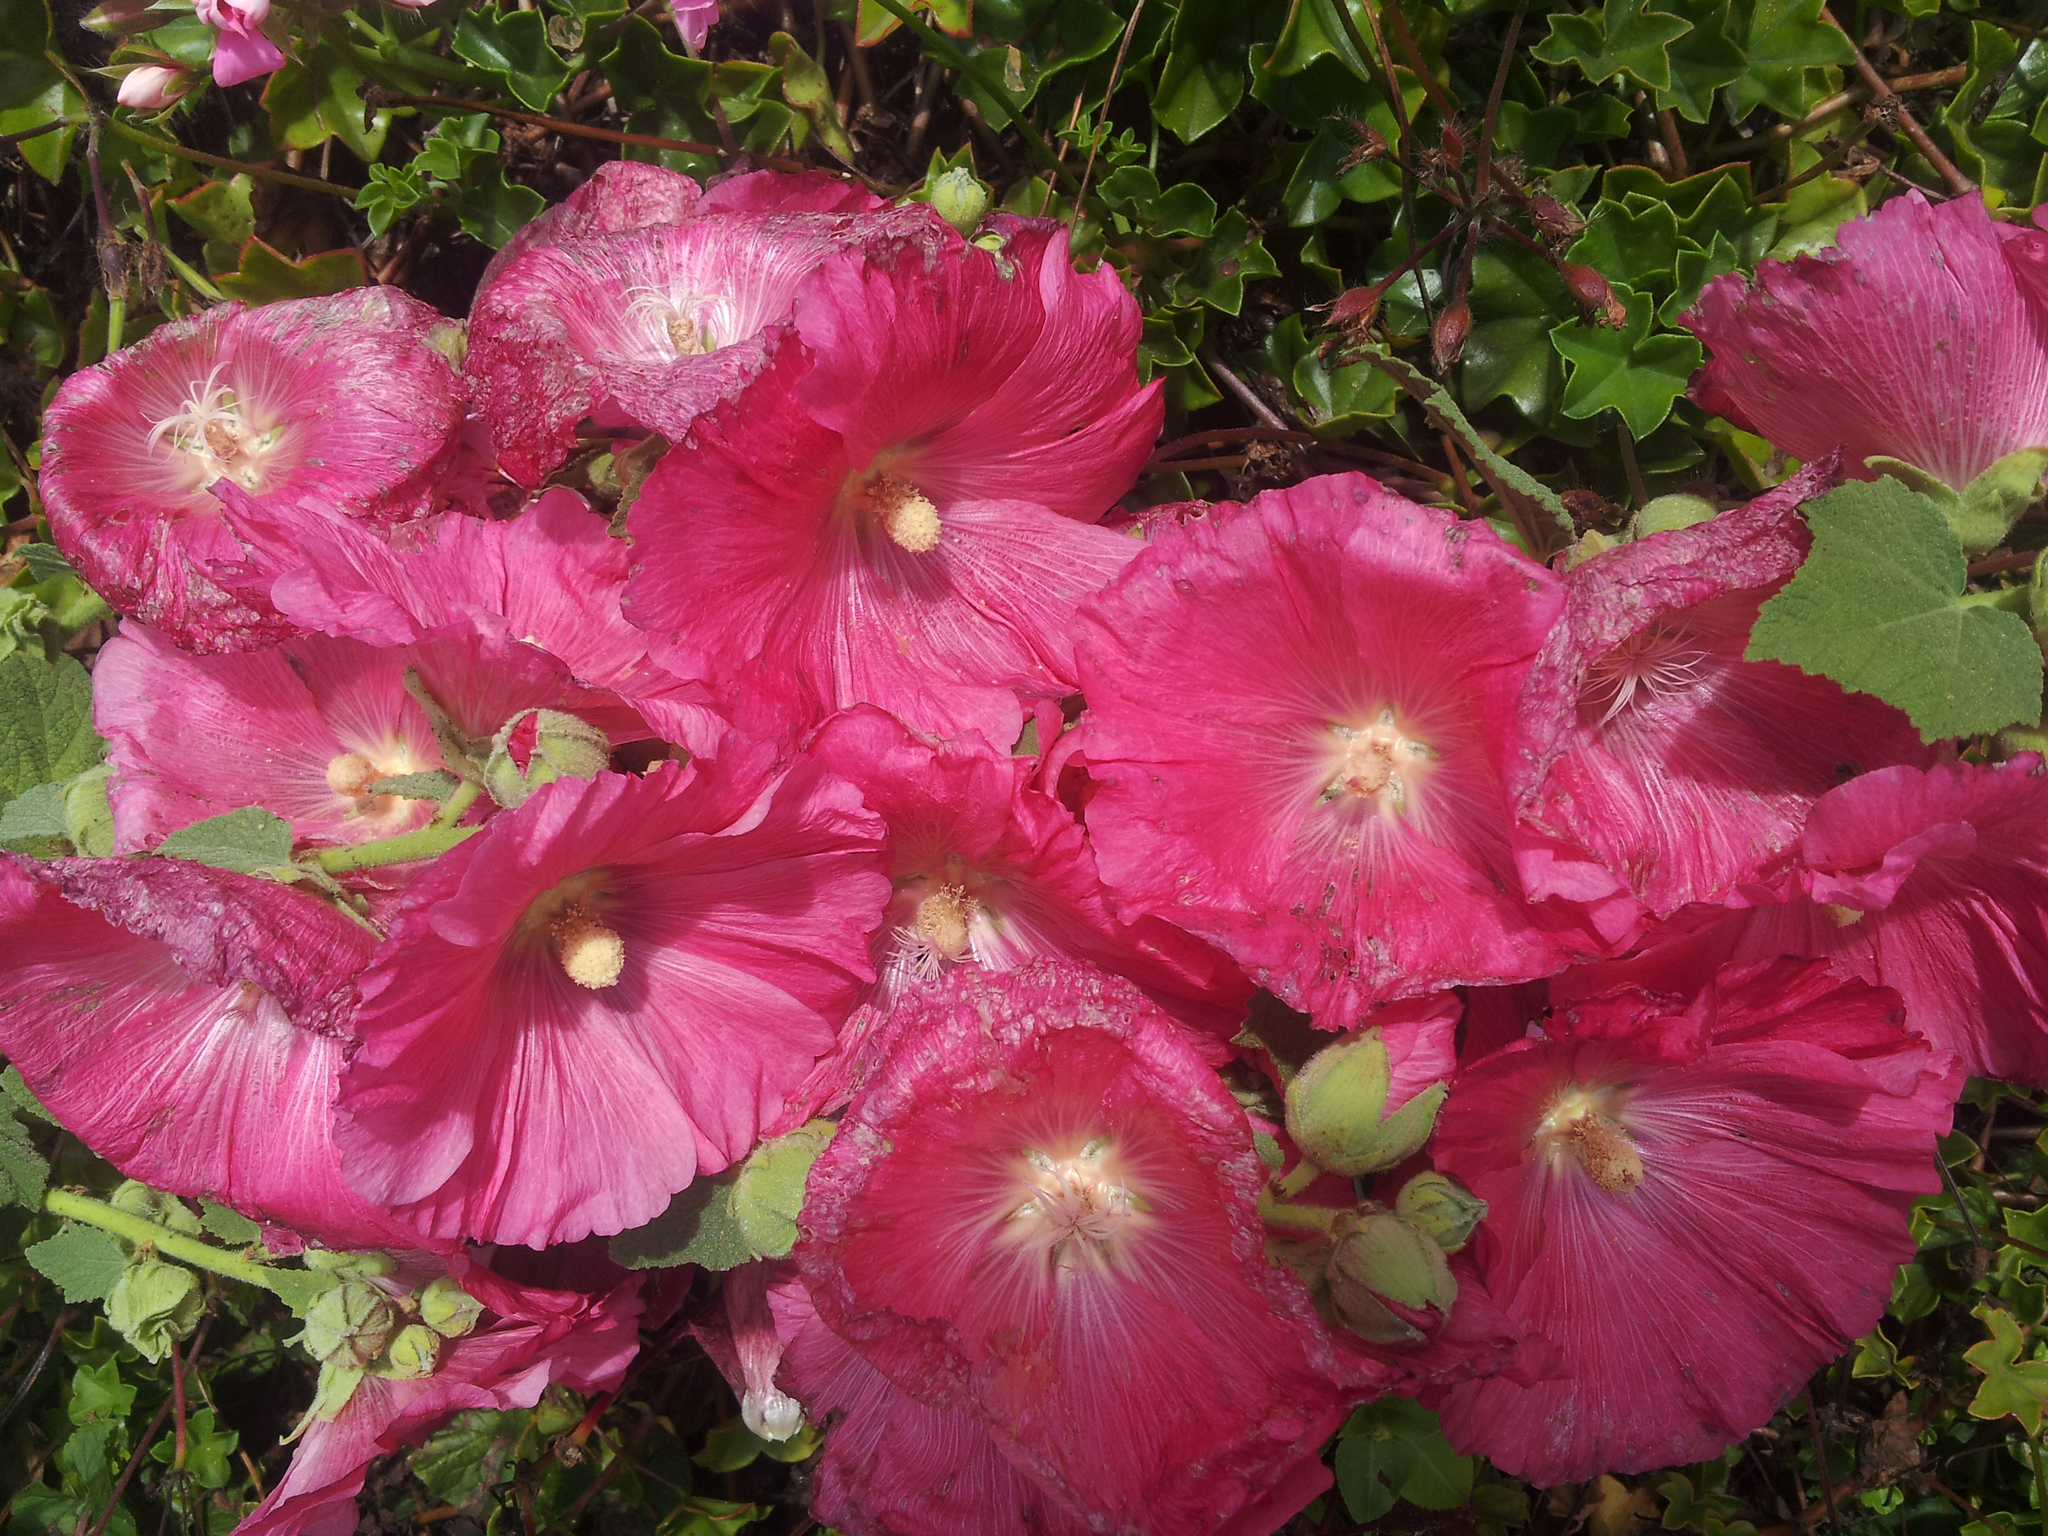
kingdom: Plantae
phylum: Tracheophyta
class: Magnoliopsida
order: Malvales
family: Malvaceae
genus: Alcea
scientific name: Alcea rosea
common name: Hollyhock
